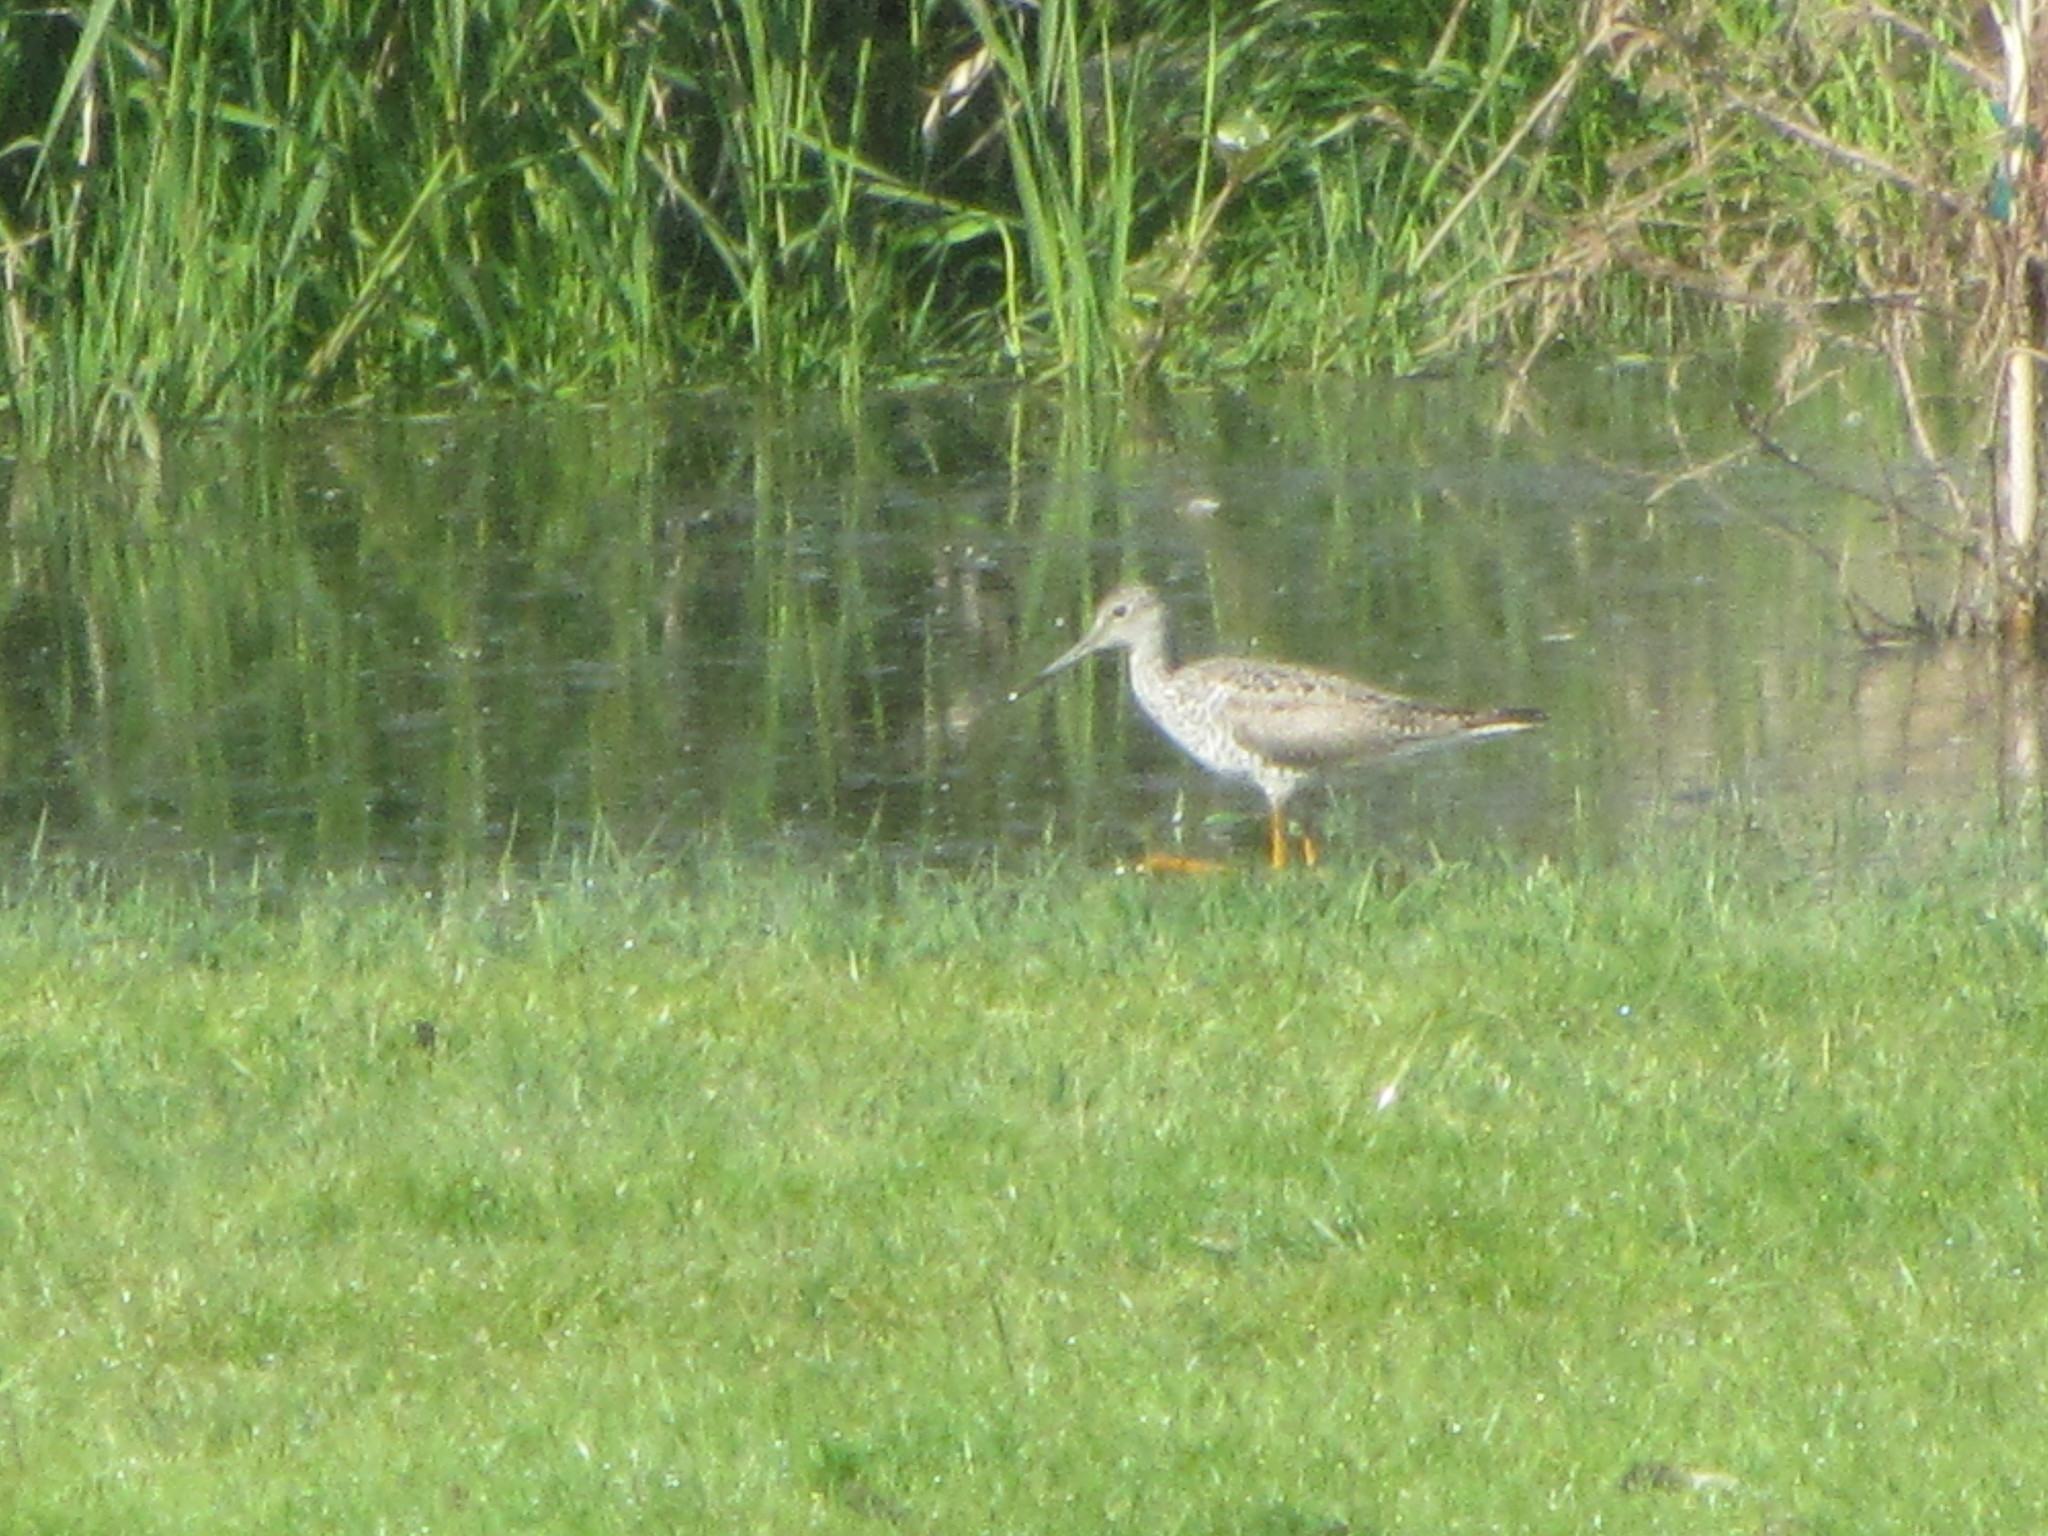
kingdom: Animalia
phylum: Chordata
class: Aves
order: Charadriiformes
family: Scolopacidae
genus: Tringa
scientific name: Tringa melanoleuca
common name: Greater yellowlegs
